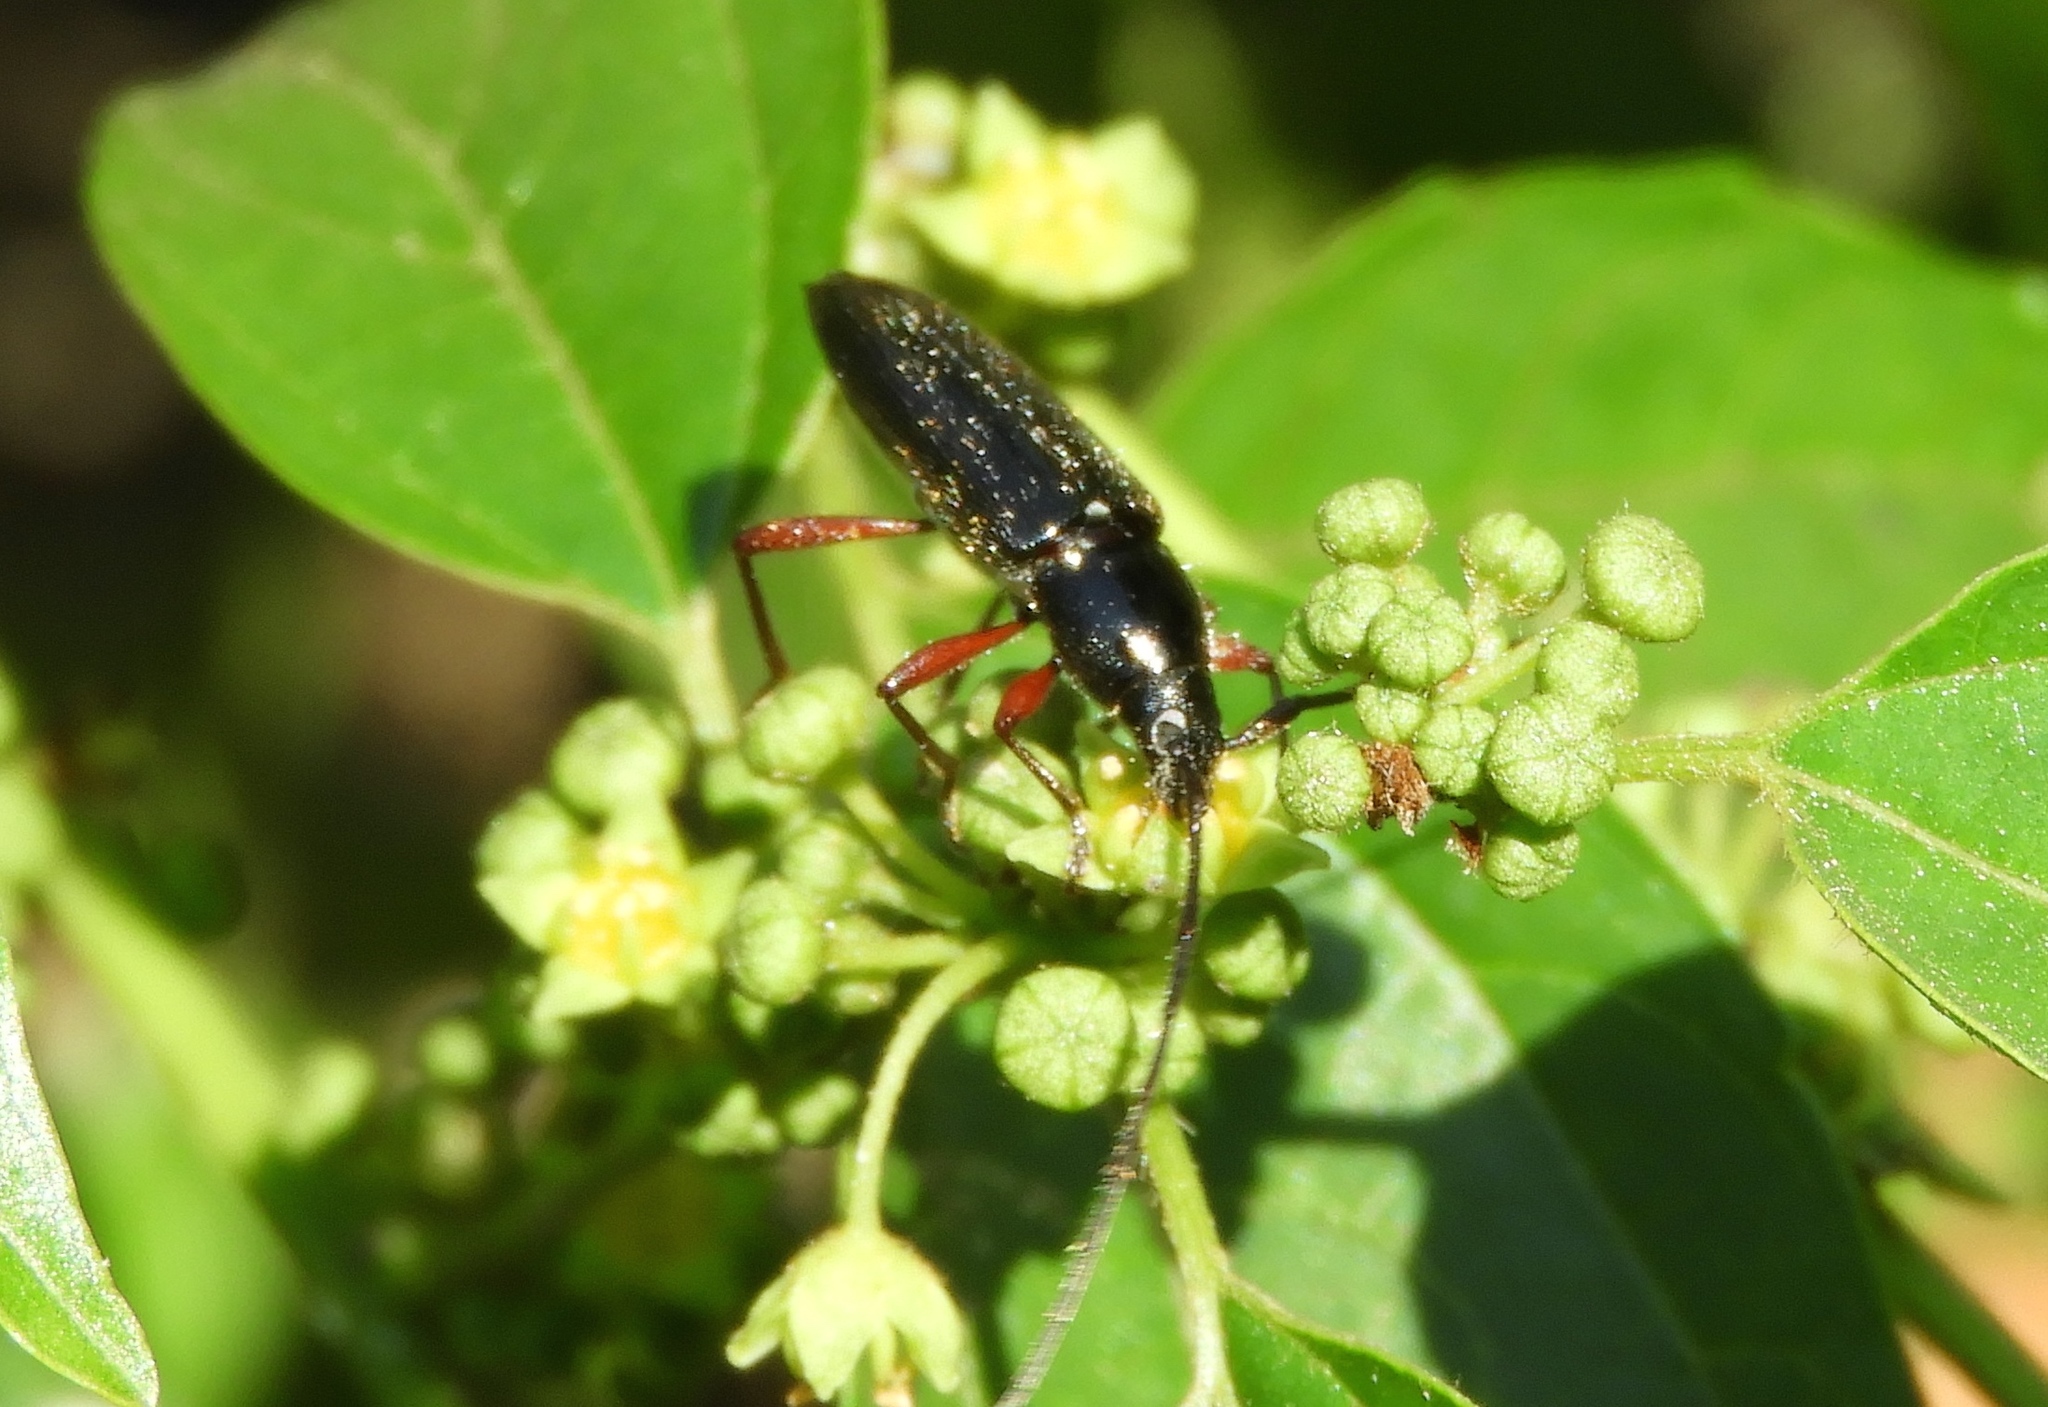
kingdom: Animalia
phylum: Arthropoda
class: Insecta
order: Coleoptera
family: Cerambycidae
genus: Stenosphenus
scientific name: Stenosphenus
